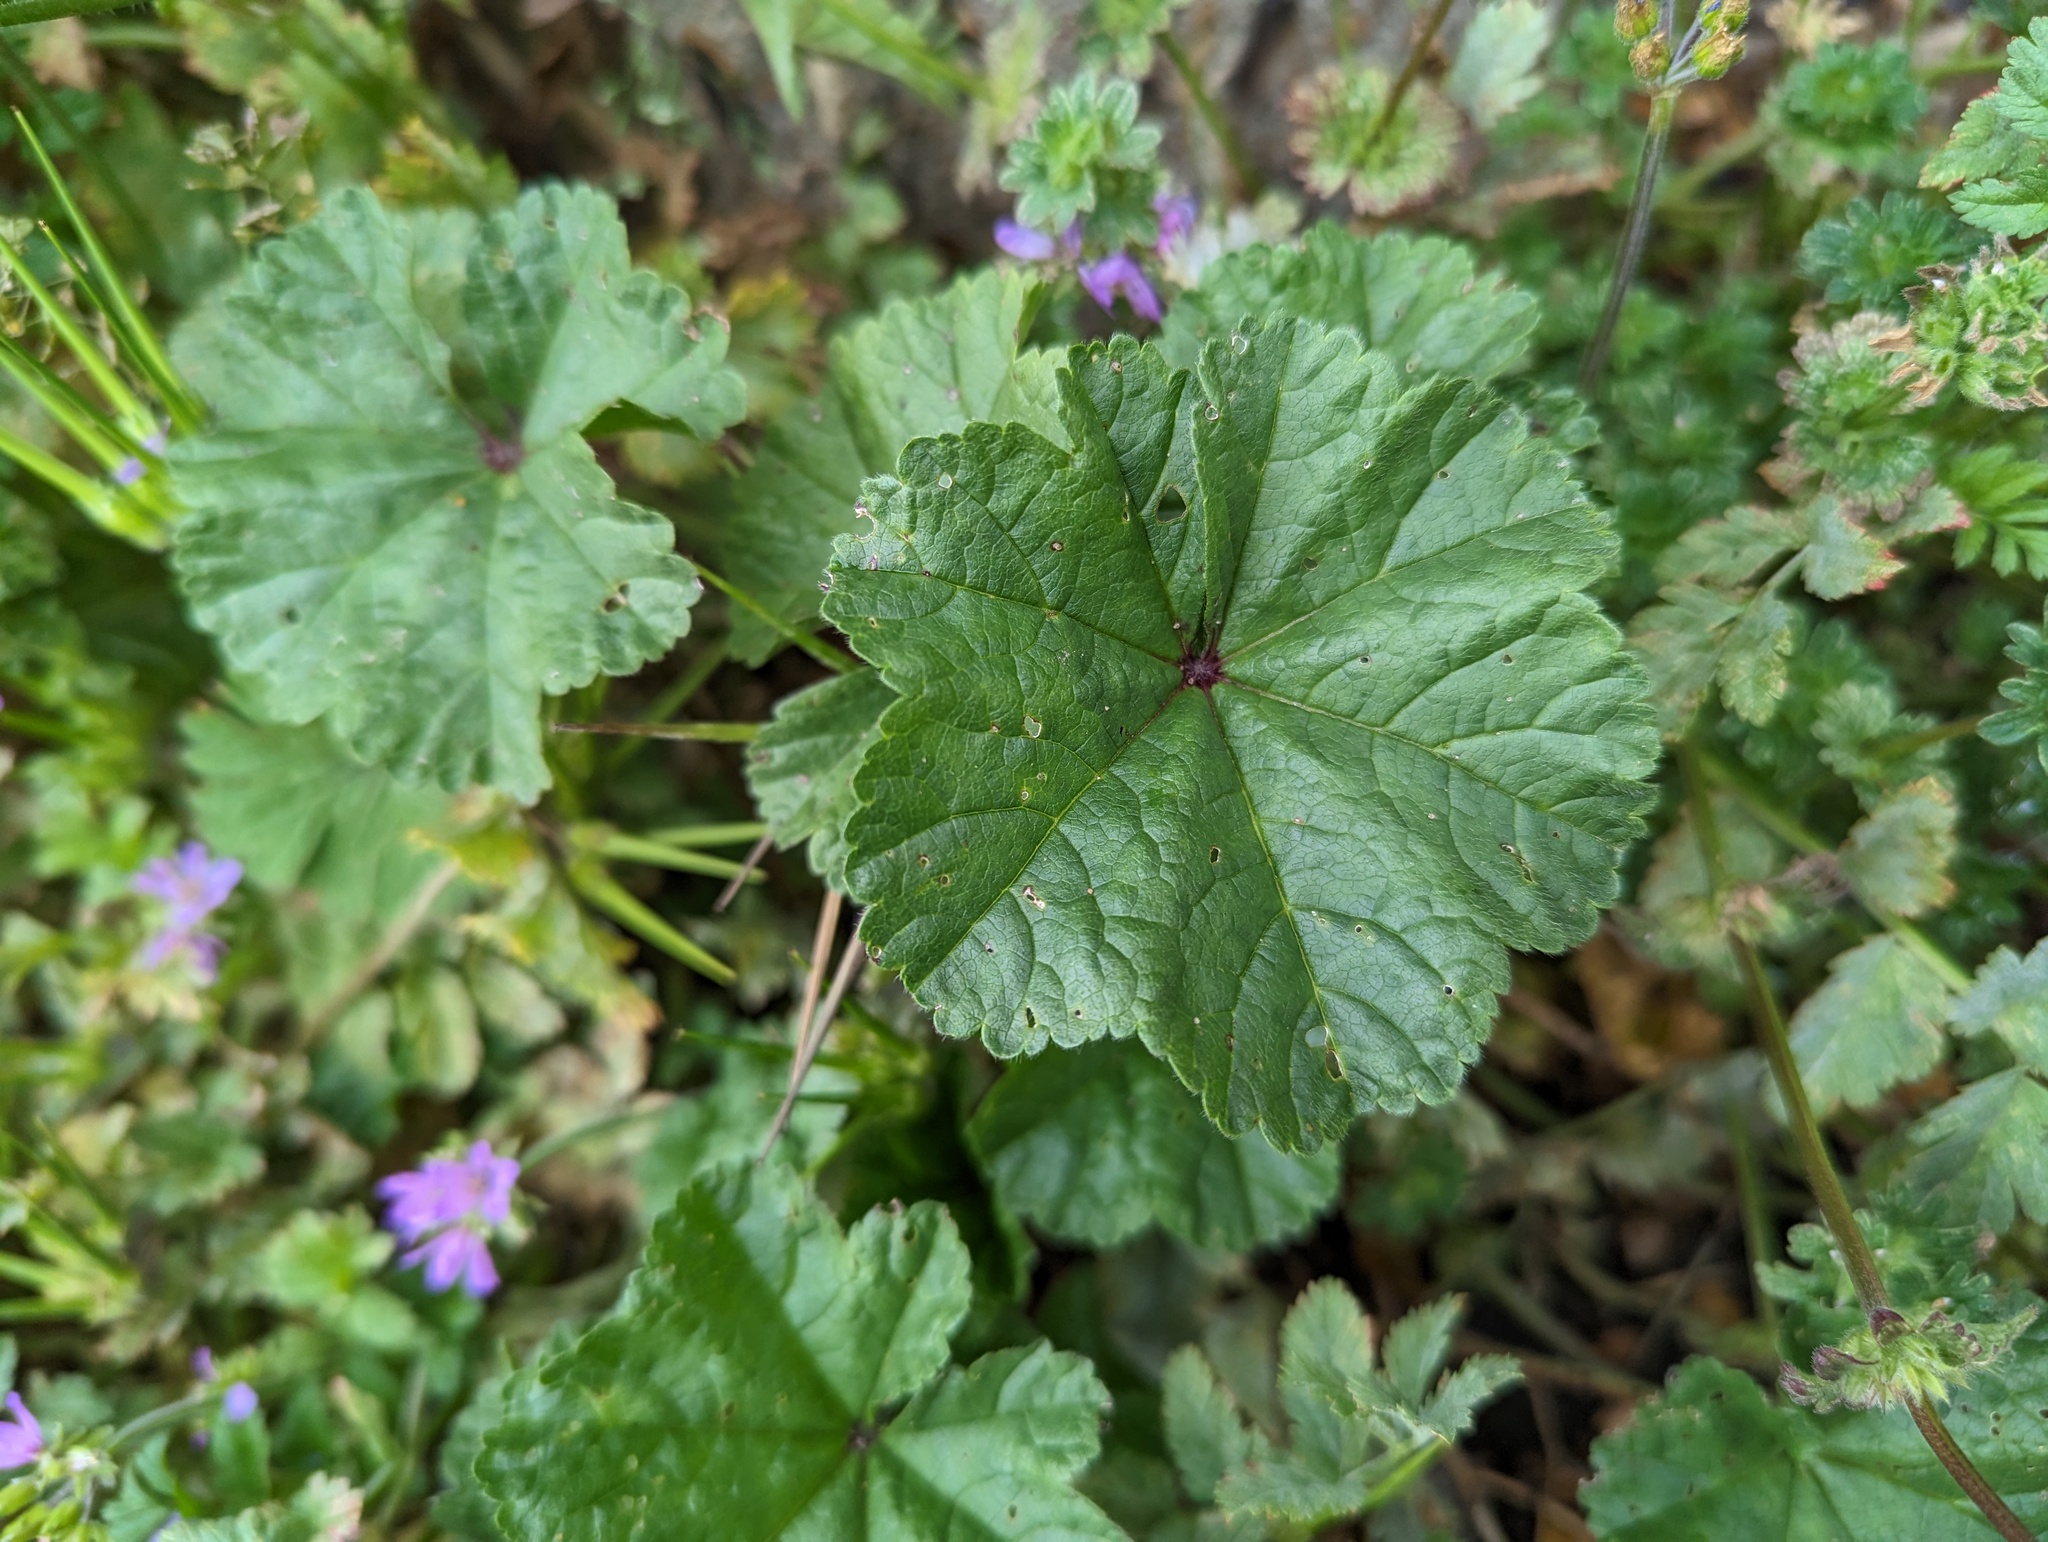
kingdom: Plantae
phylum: Tracheophyta
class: Magnoliopsida
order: Malvales
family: Malvaceae
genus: Malva
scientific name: Malva sylvestris
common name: Common mallow
